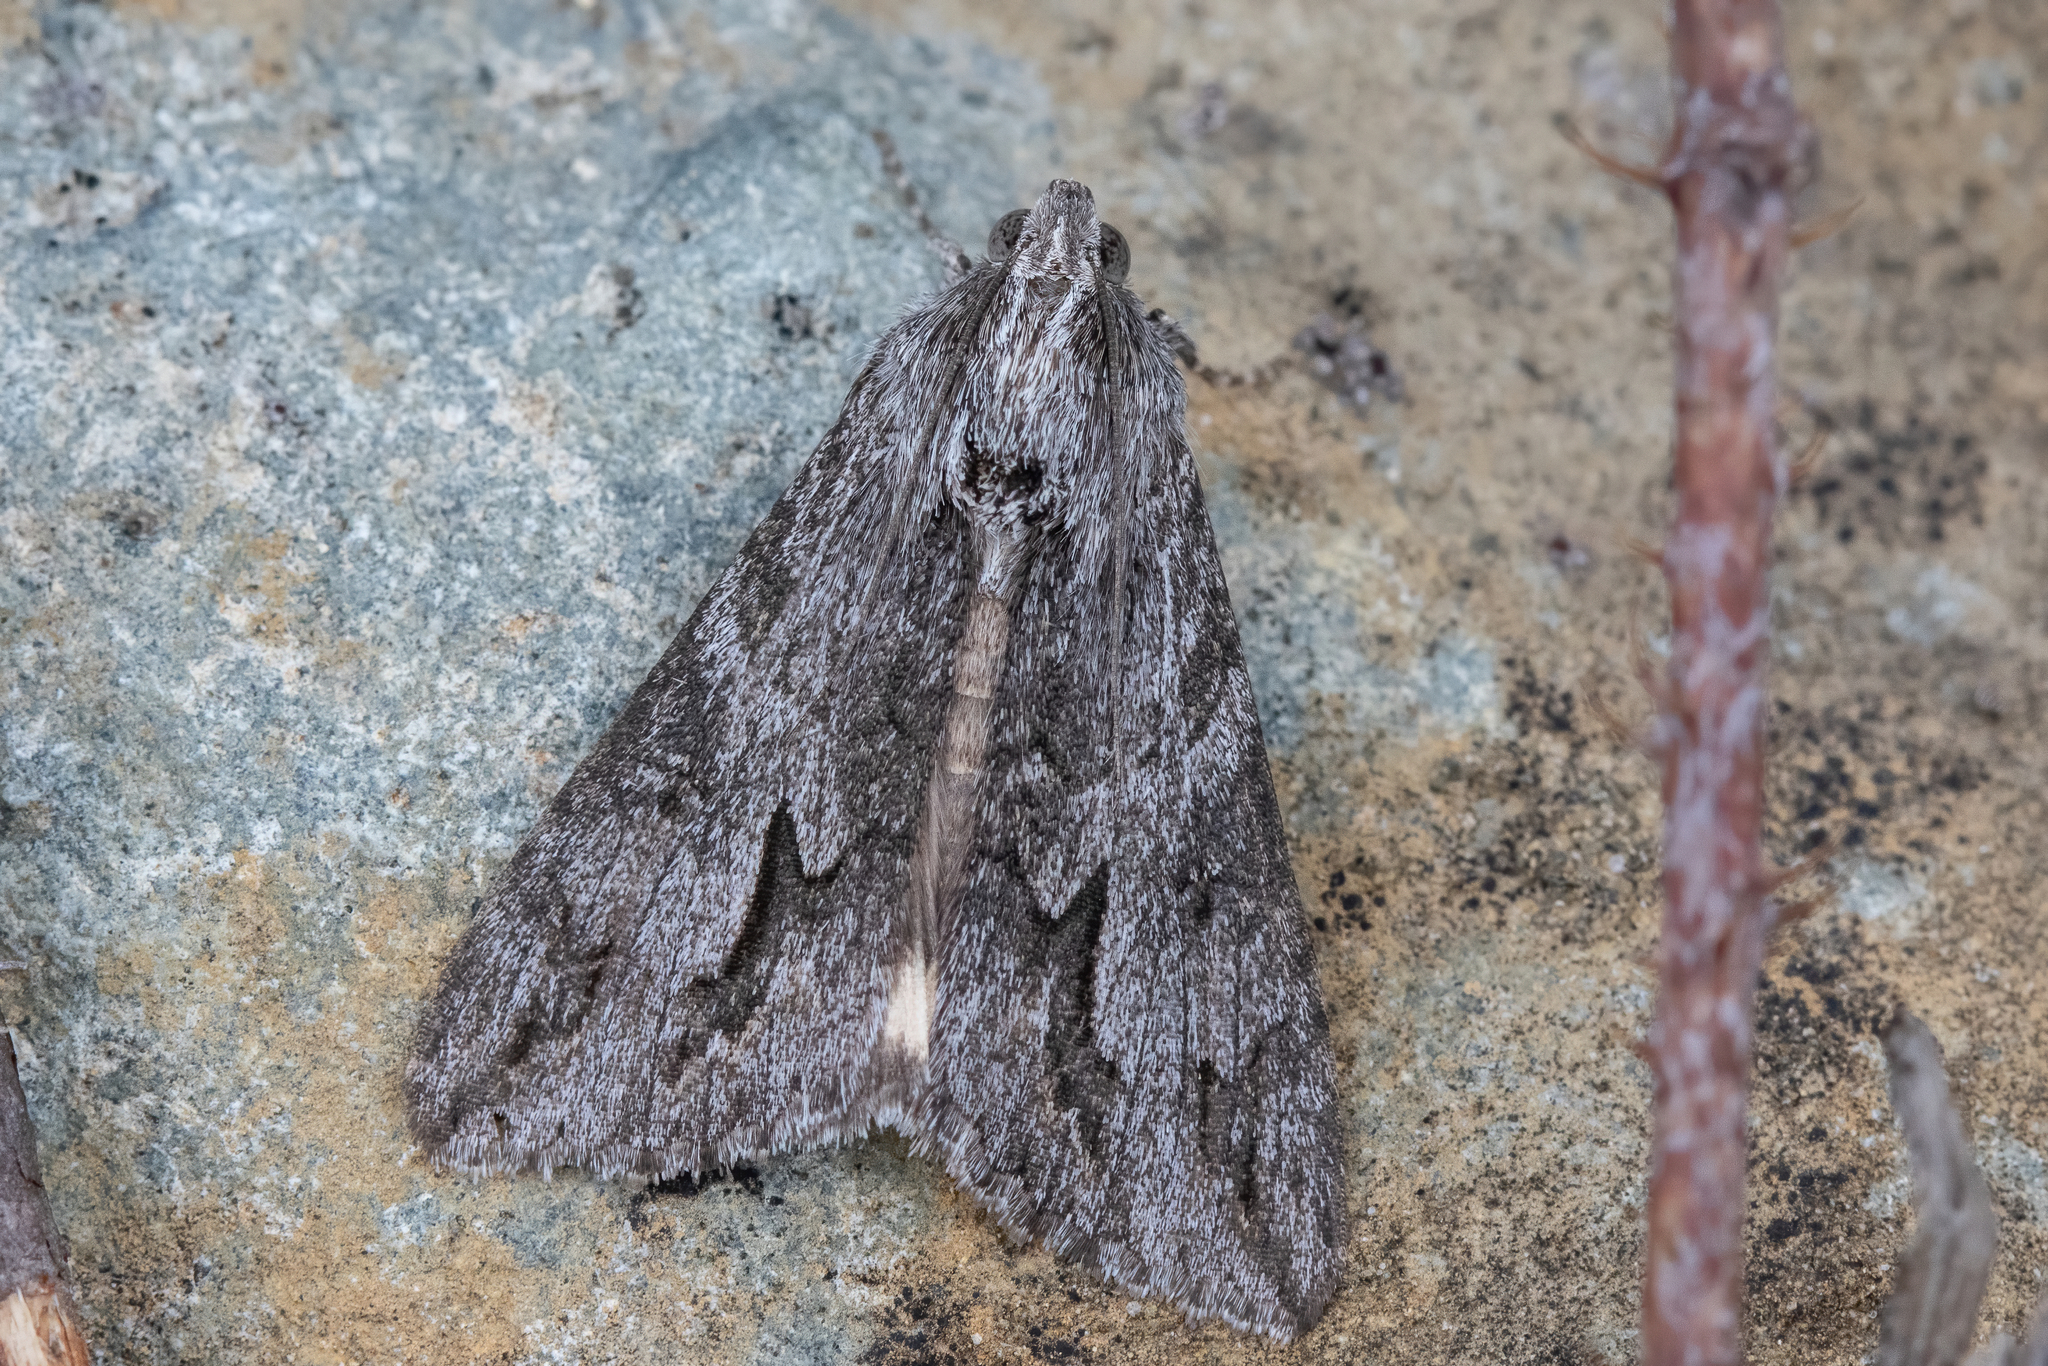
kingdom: Animalia
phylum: Arthropoda
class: Insecta
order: Lepidoptera
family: Erebidae
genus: Melipotis
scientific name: Melipotis jucunda
